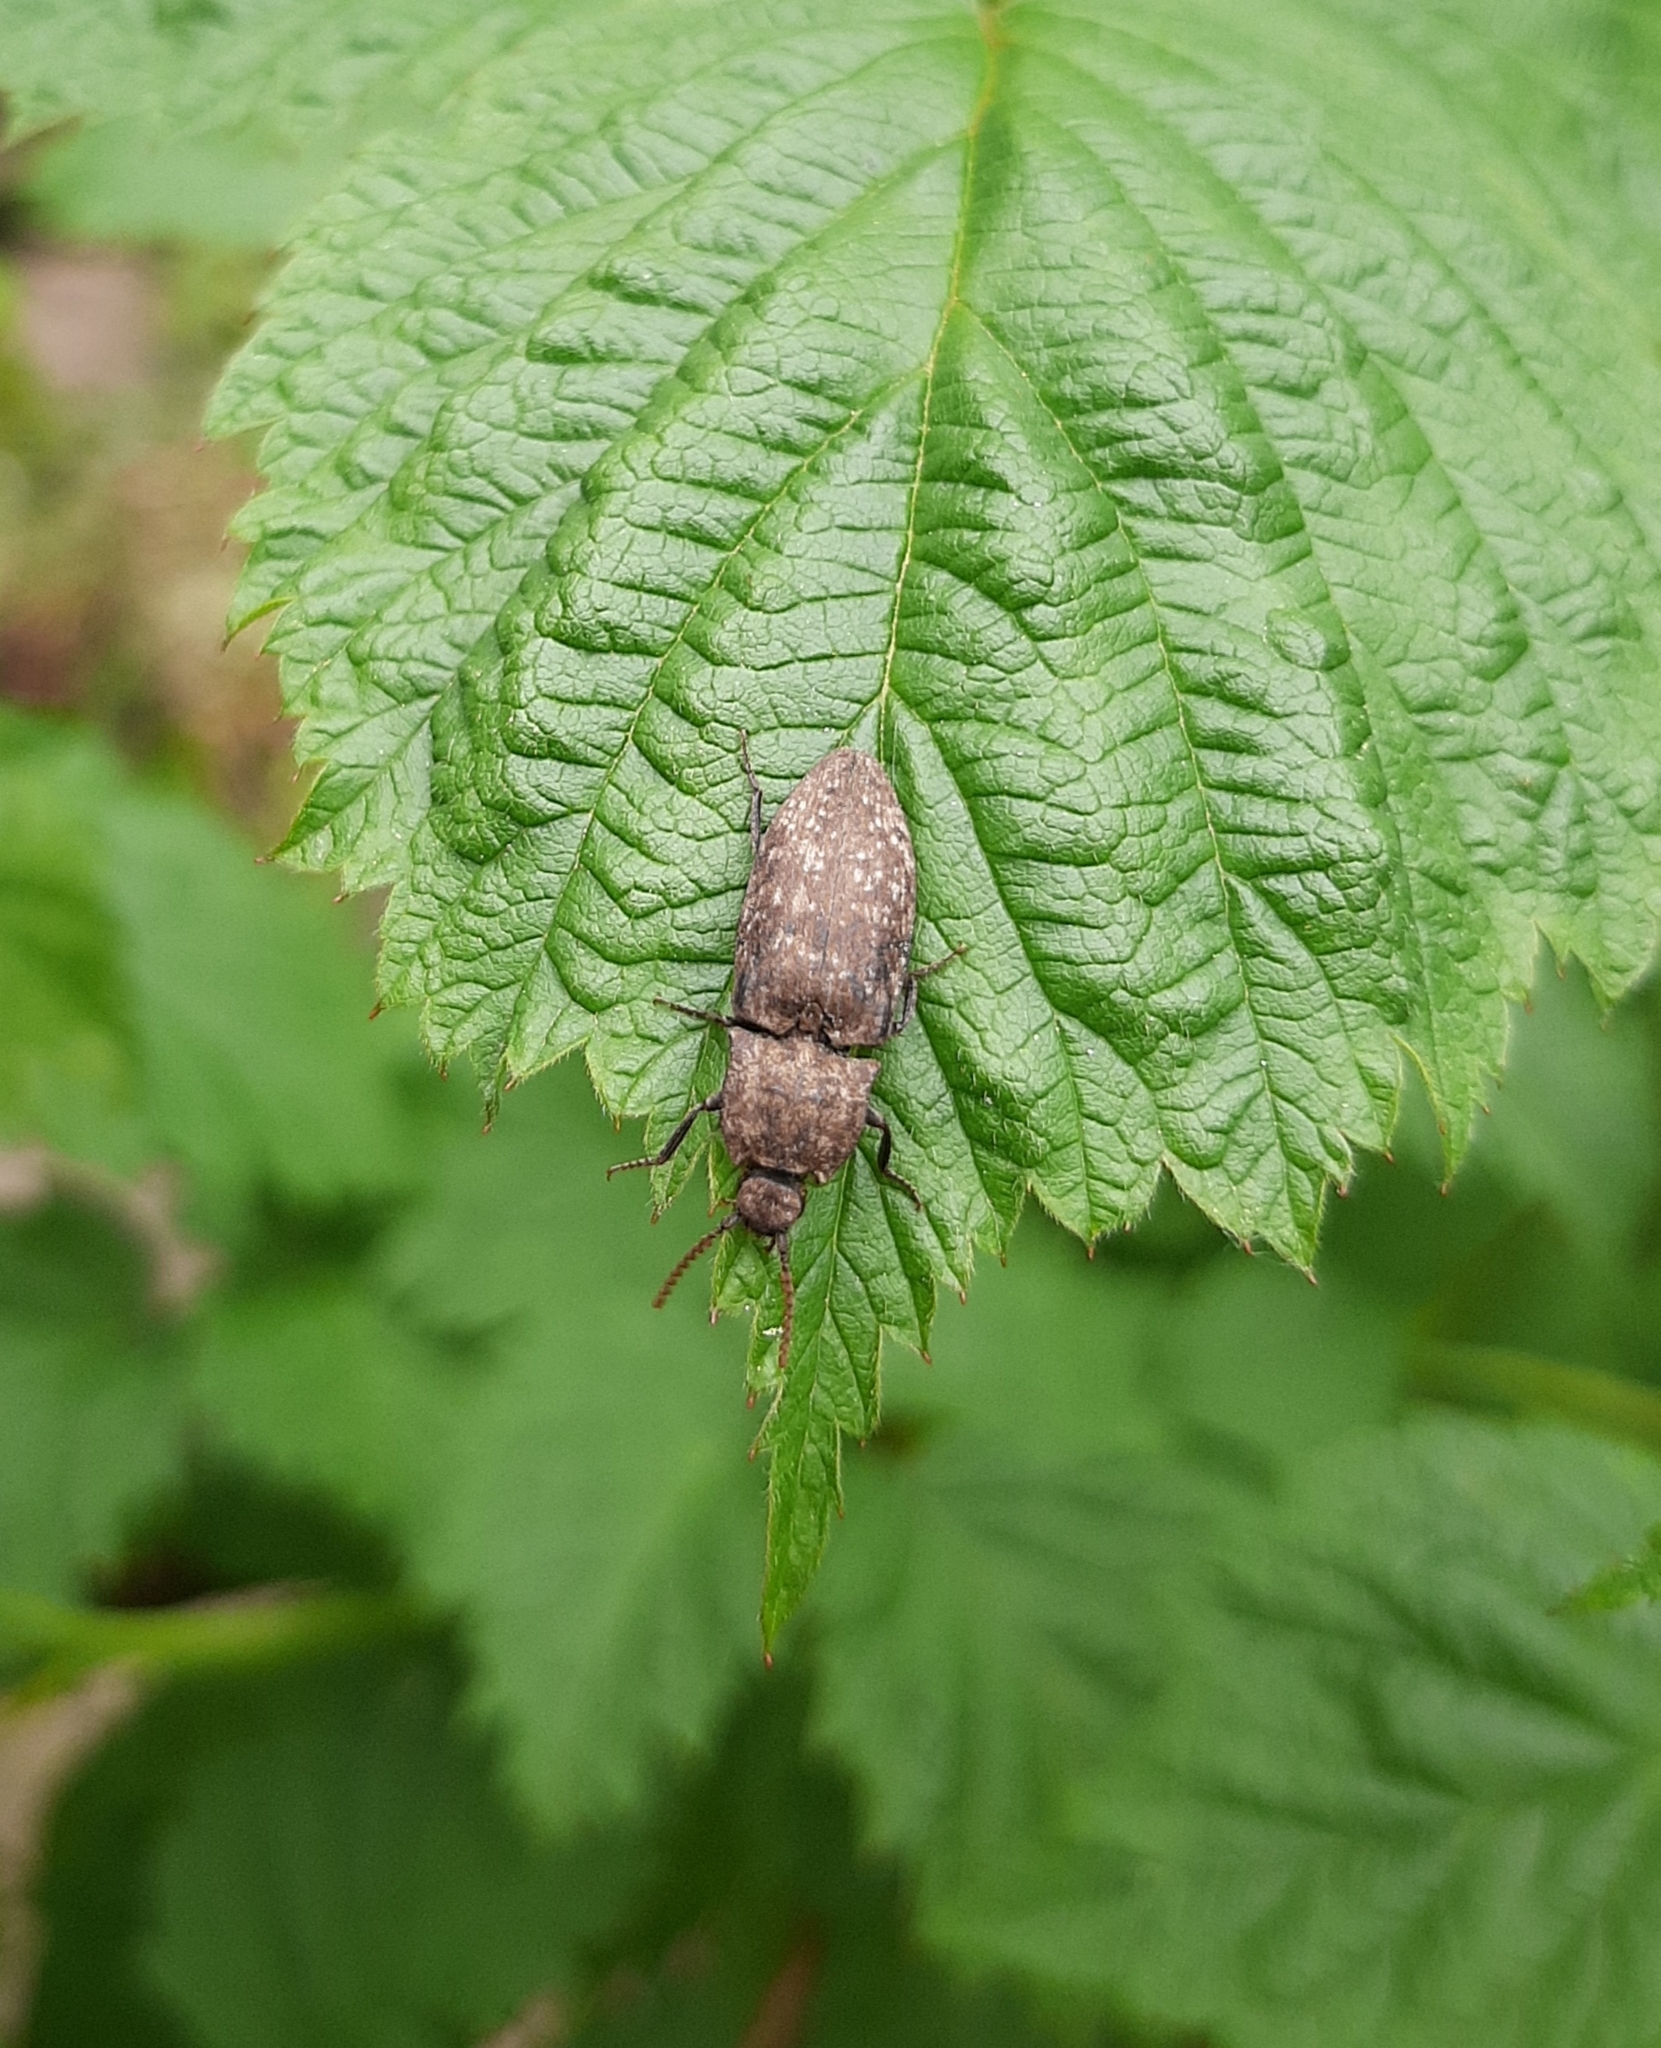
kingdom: Animalia
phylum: Arthropoda
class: Insecta
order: Coleoptera
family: Elateridae
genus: Agrypnus
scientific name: Agrypnus murinus
